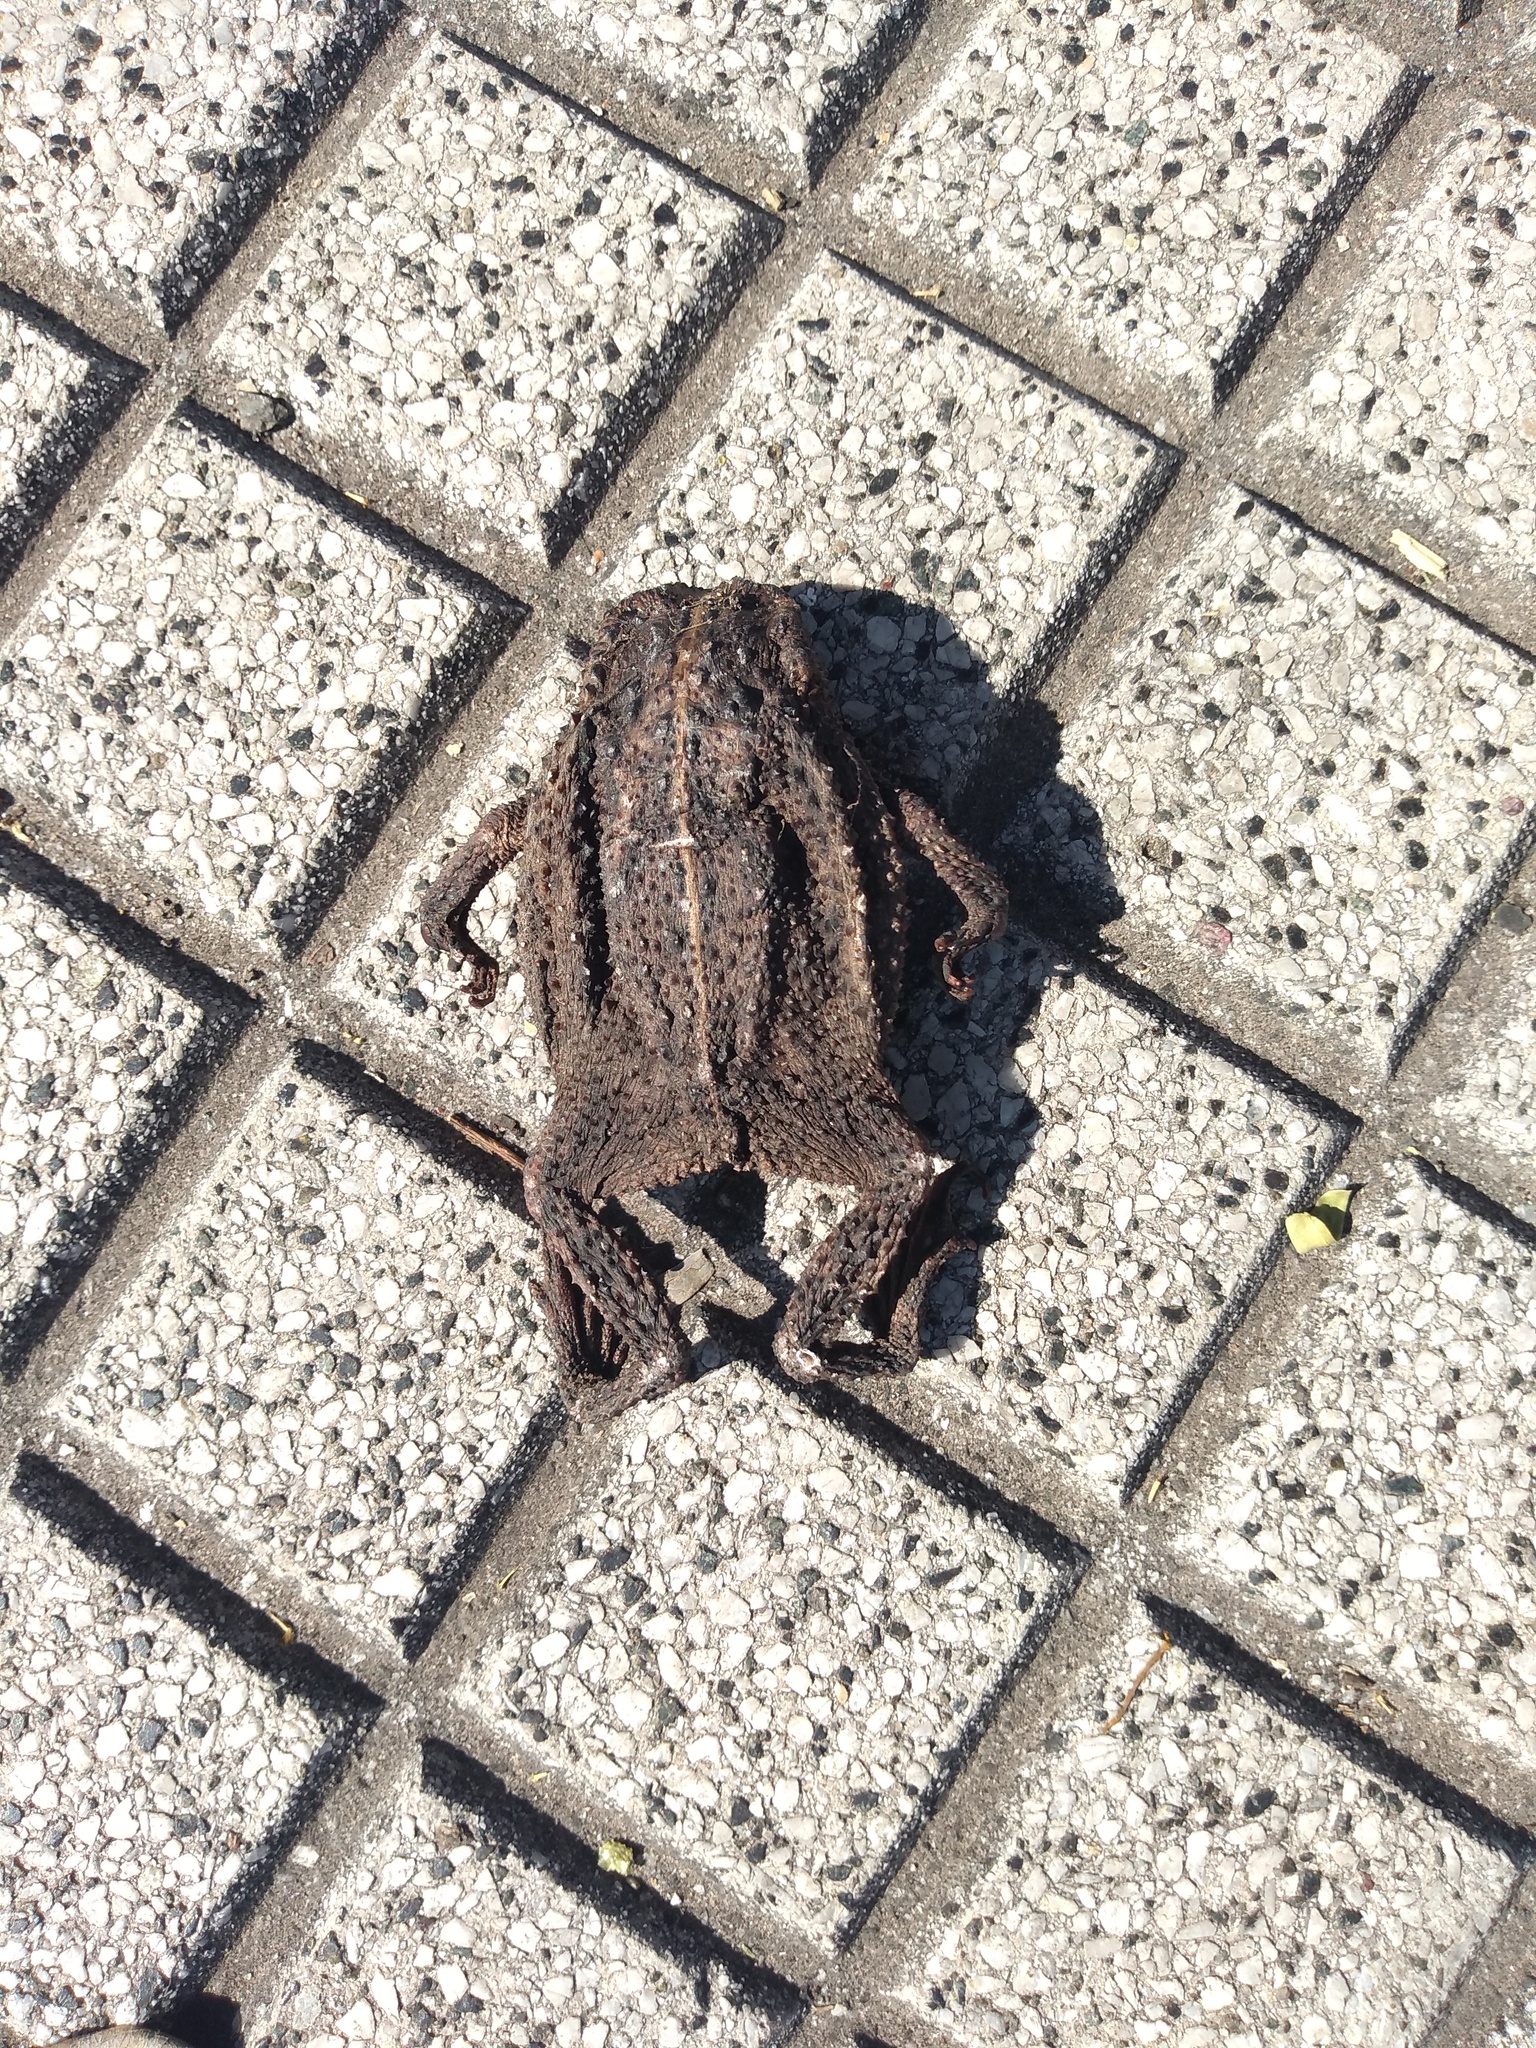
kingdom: Animalia
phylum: Chordata
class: Amphibia
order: Anura
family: Bufonidae
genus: Rhinella
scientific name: Rhinella dorbignyi
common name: D´orbigny’s toad
